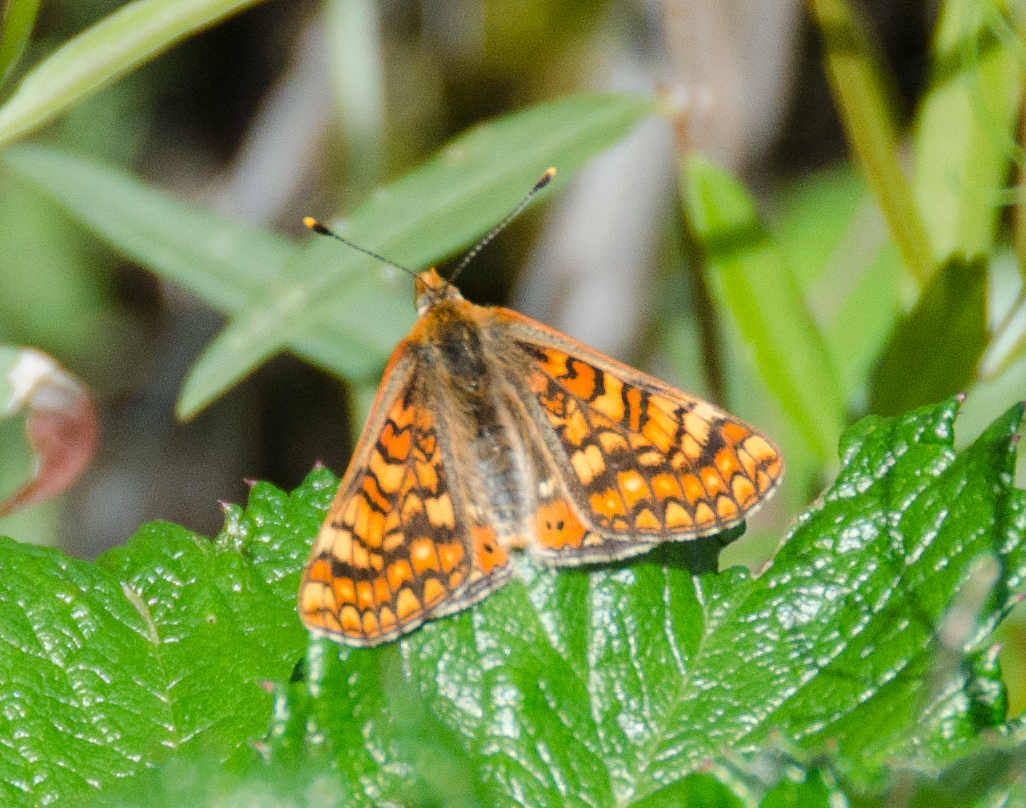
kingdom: Animalia
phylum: Arthropoda
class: Insecta
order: Lepidoptera
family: Nymphalidae
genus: Euphydryas
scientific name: Euphydryas aurinia
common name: Marsh fritillary
